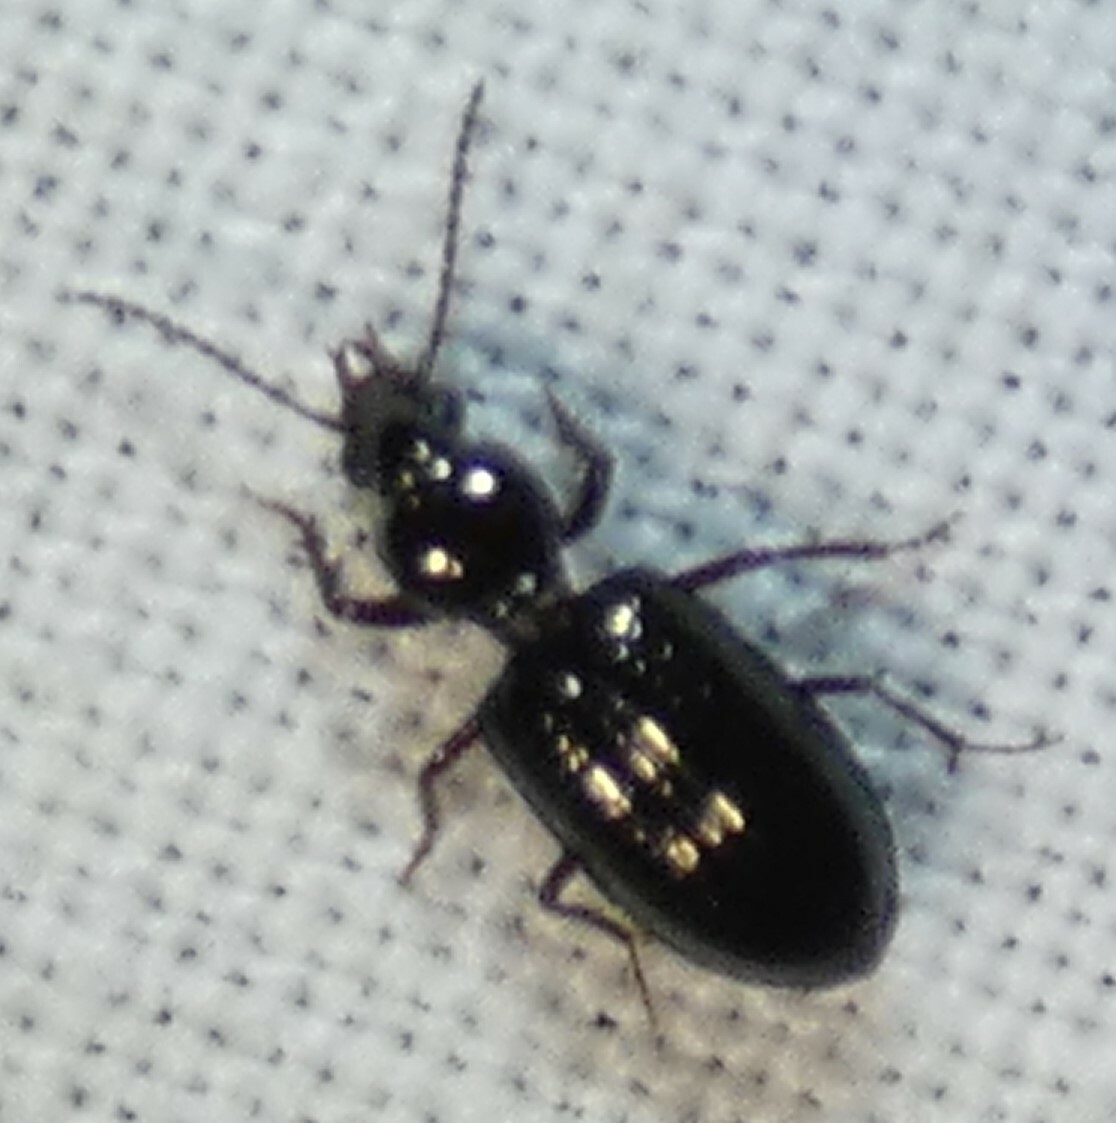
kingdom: Animalia
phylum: Arthropoda
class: Insecta
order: Coleoptera
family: Carabidae
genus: Semiardistomis
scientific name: Semiardistomis viridis
